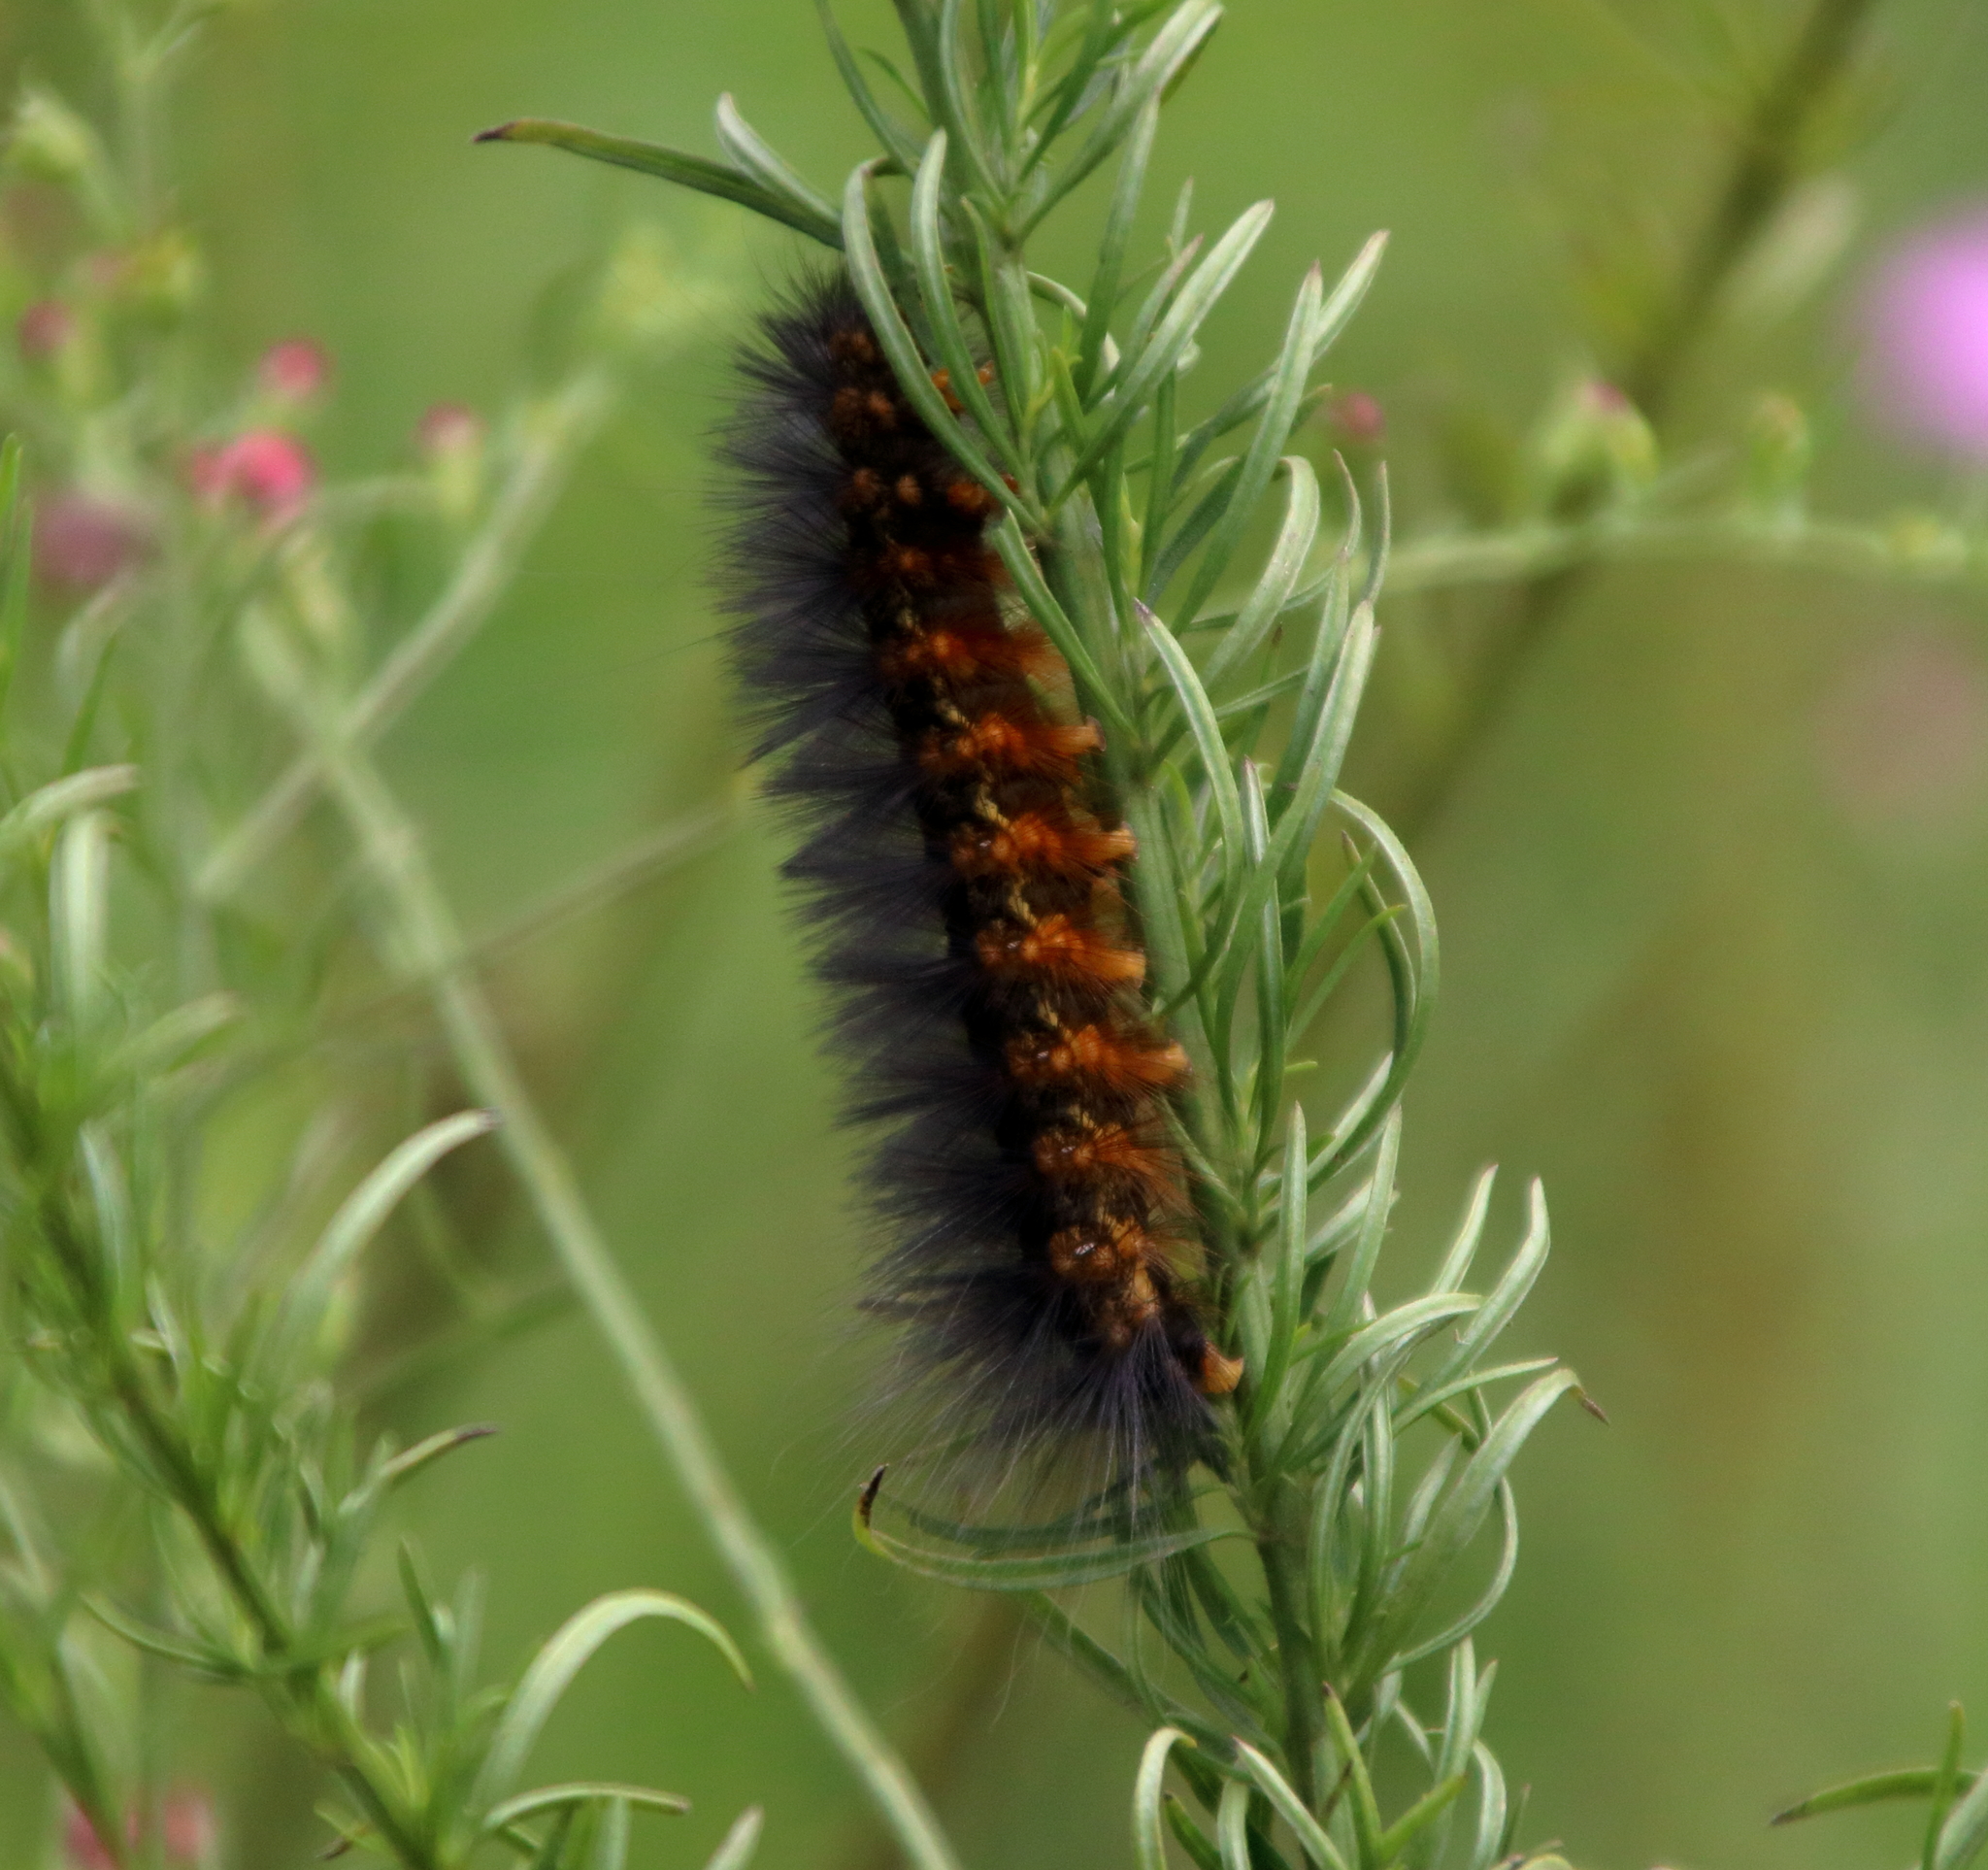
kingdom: Animalia
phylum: Arthropoda
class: Insecta
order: Lepidoptera
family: Erebidae
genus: Estigmene
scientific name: Estigmene acrea
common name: Salt marsh moth
